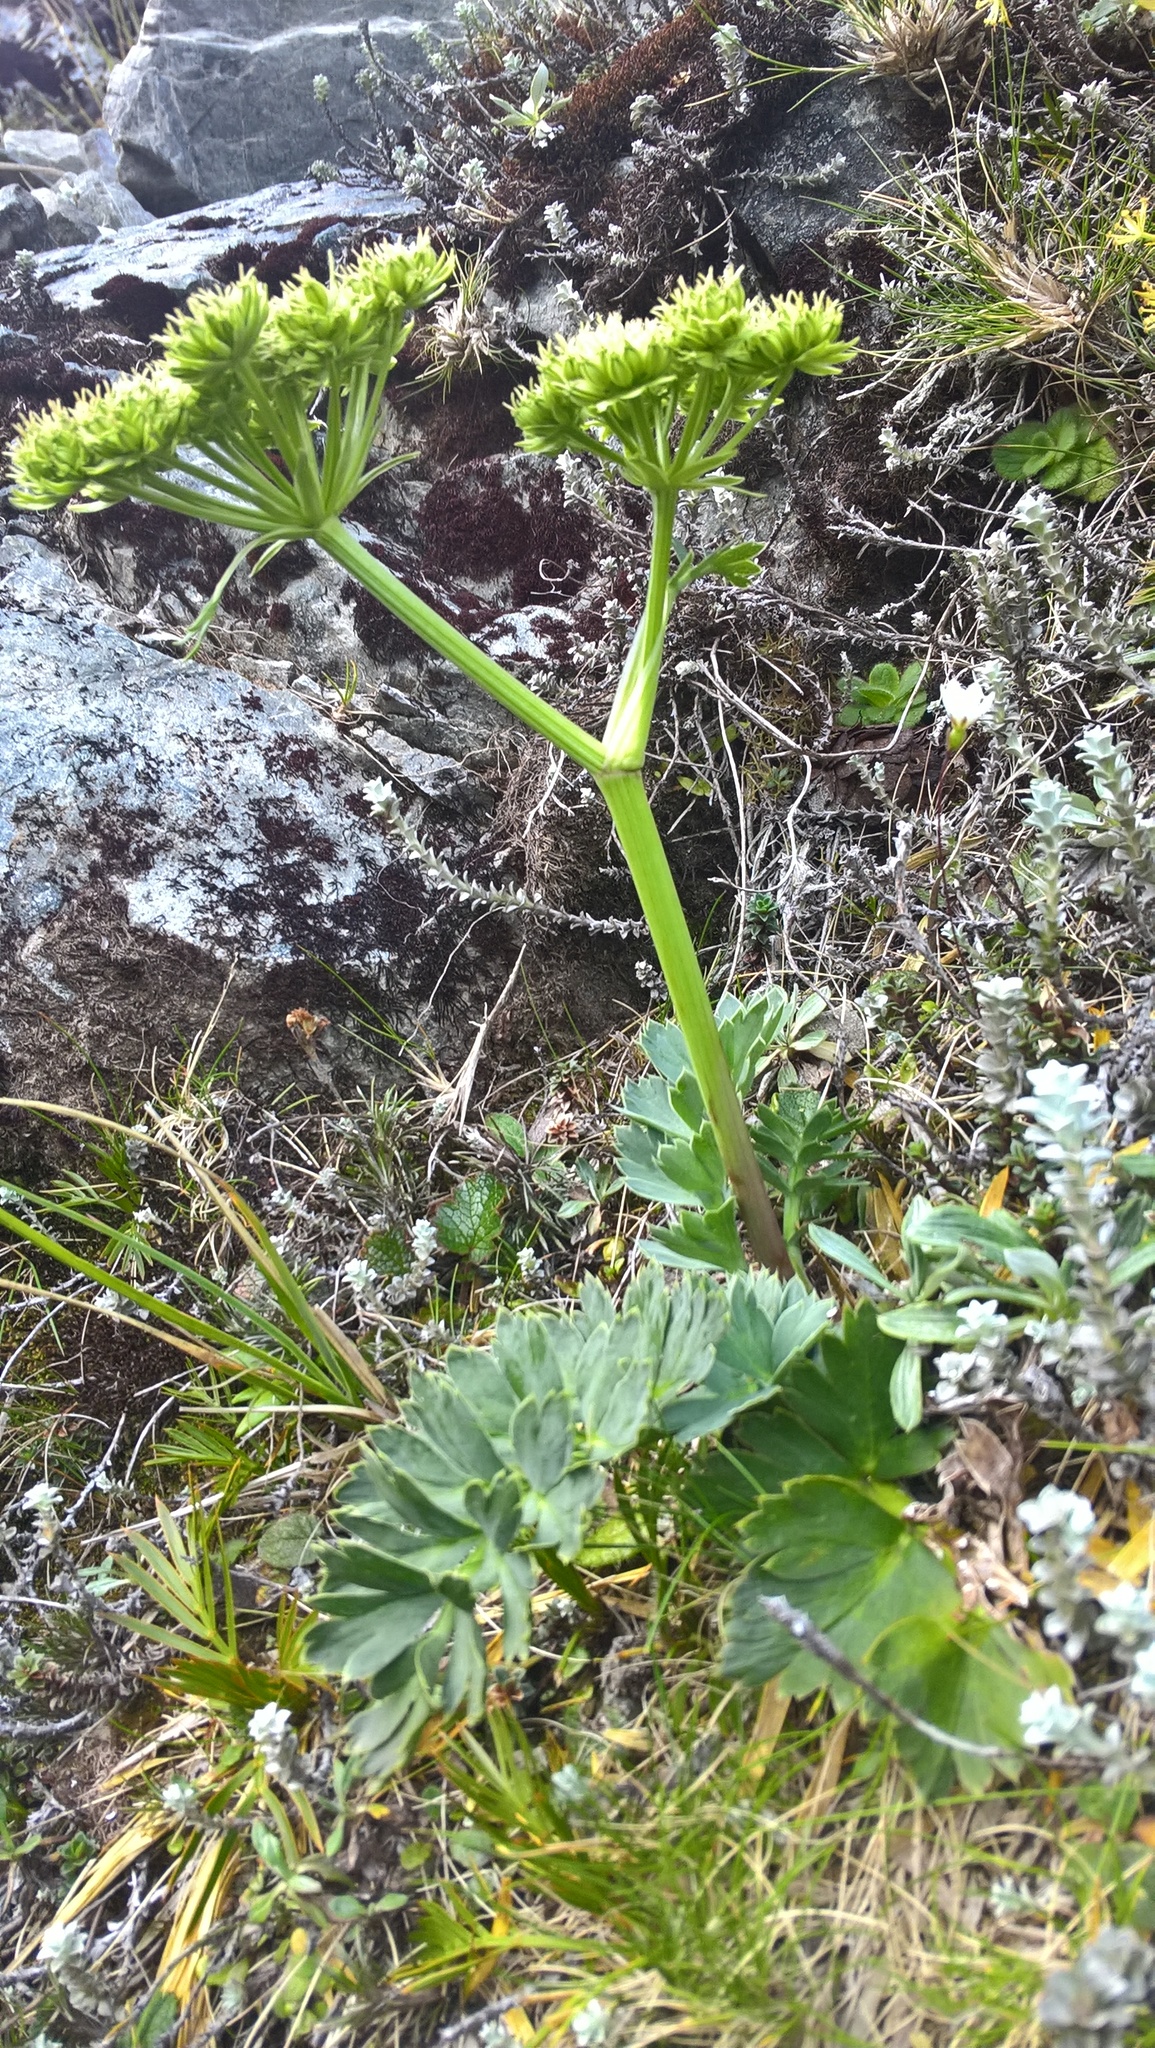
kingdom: Plantae
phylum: Tracheophyta
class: Magnoliopsida
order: Apiales
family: Apiaceae
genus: Anisotome
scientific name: Anisotome pilifera
